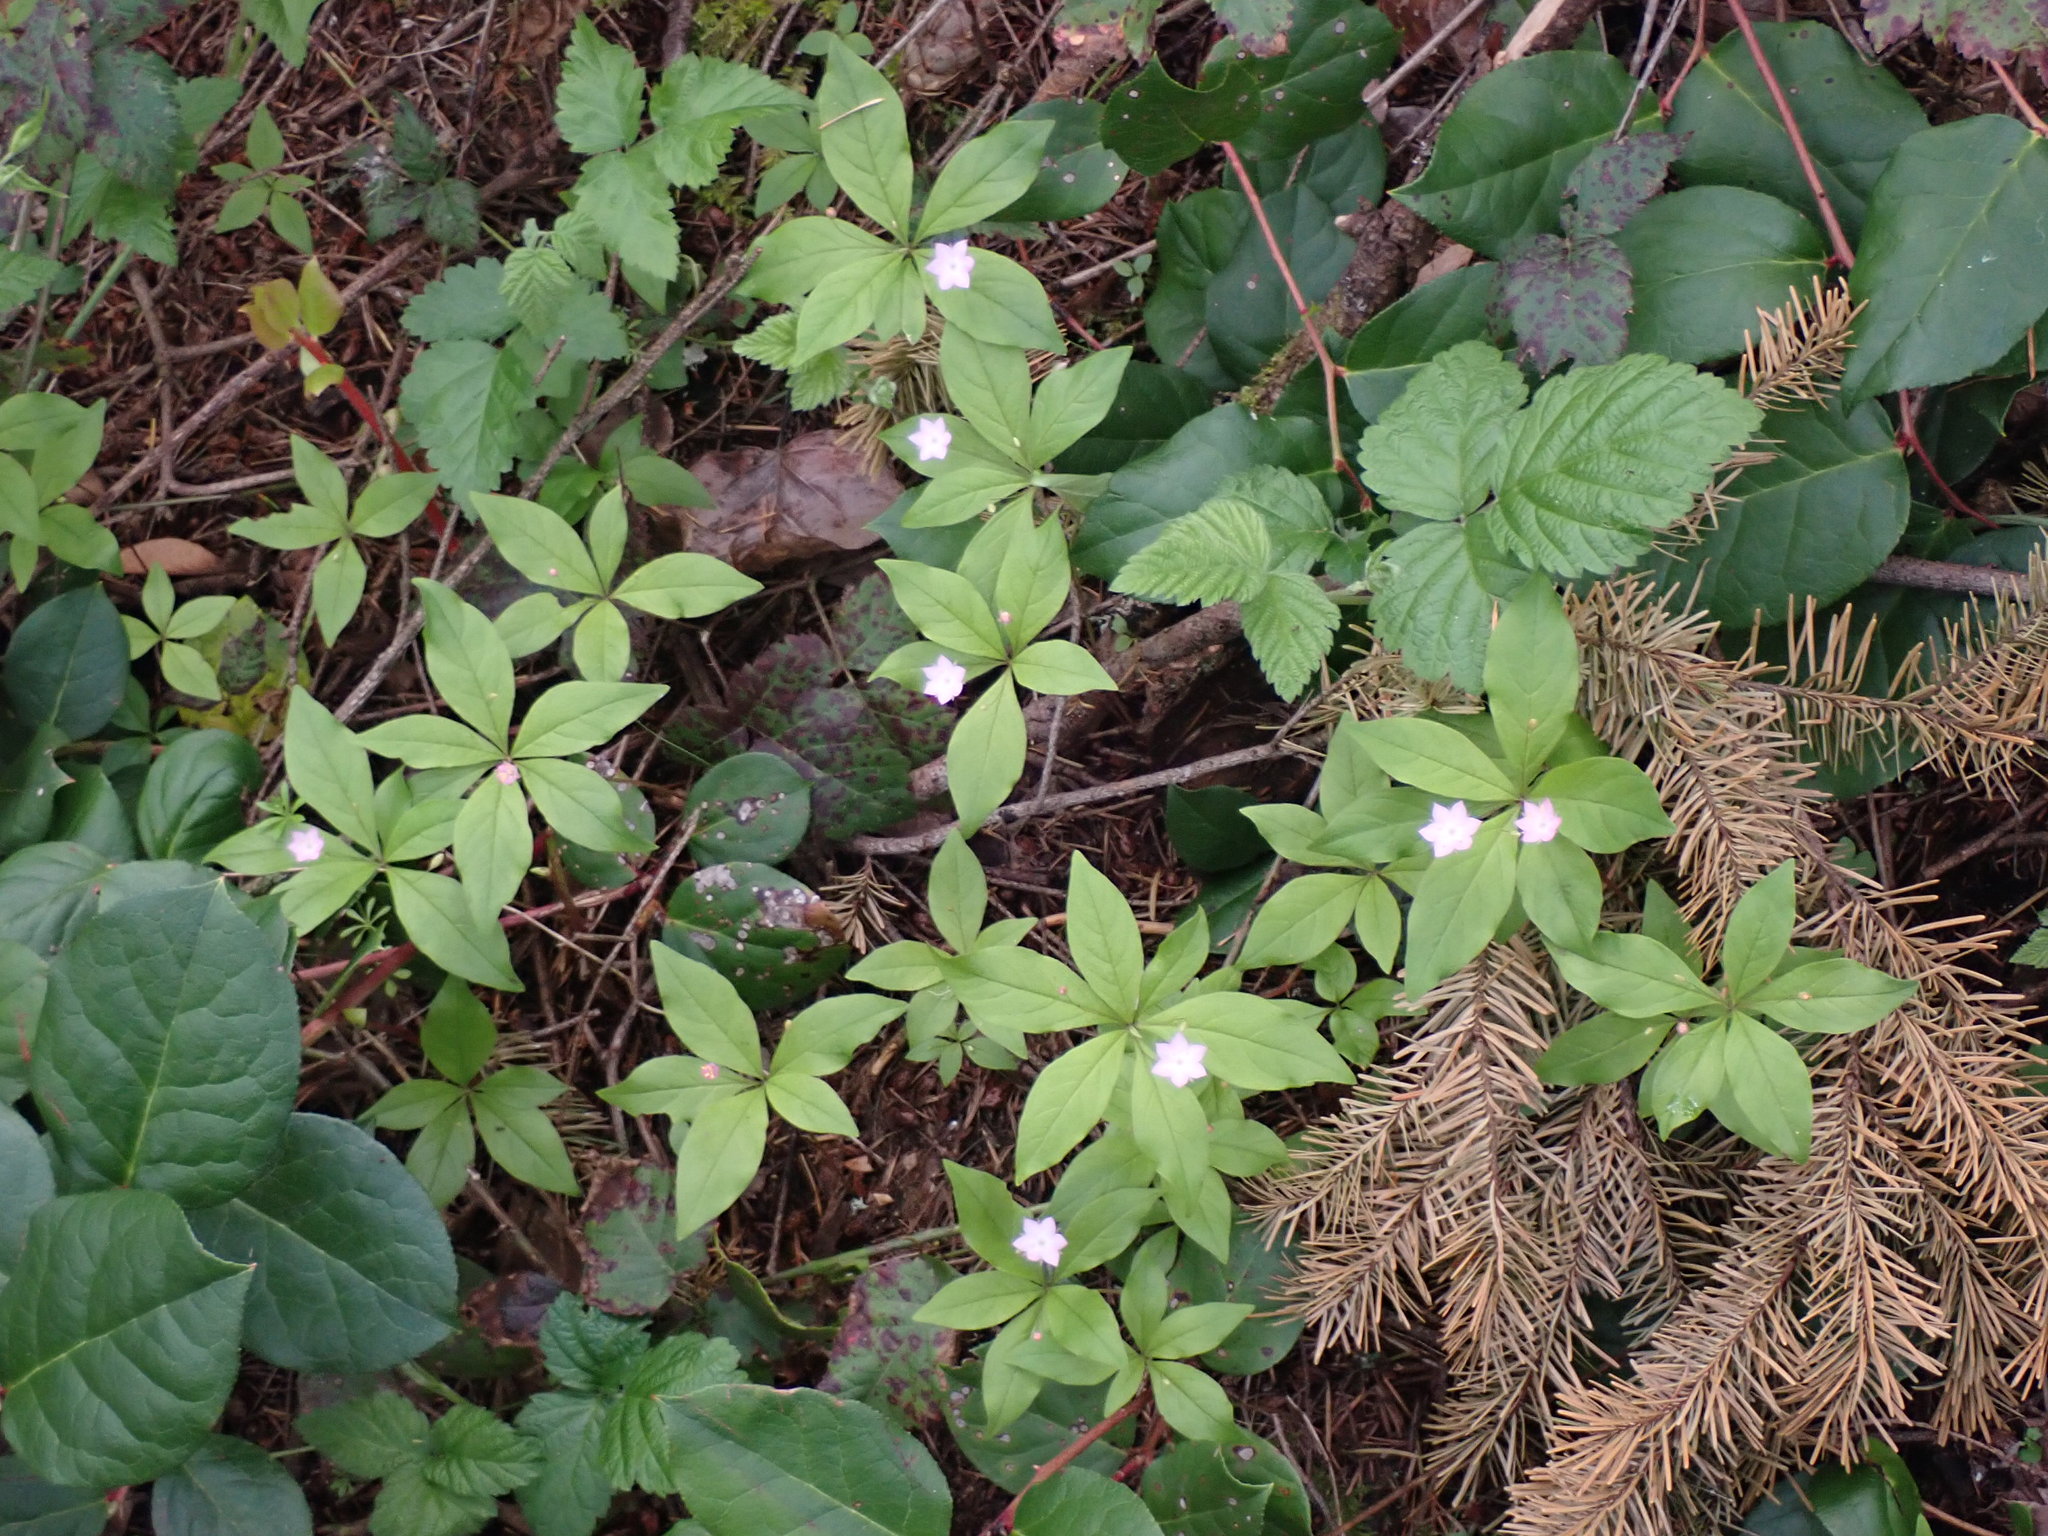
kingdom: Plantae
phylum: Tracheophyta
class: Magnoliopsida
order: Ericales
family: Primulaceae
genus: Lysimachia
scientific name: Lysimachia latifolia
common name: Pacific starflower
